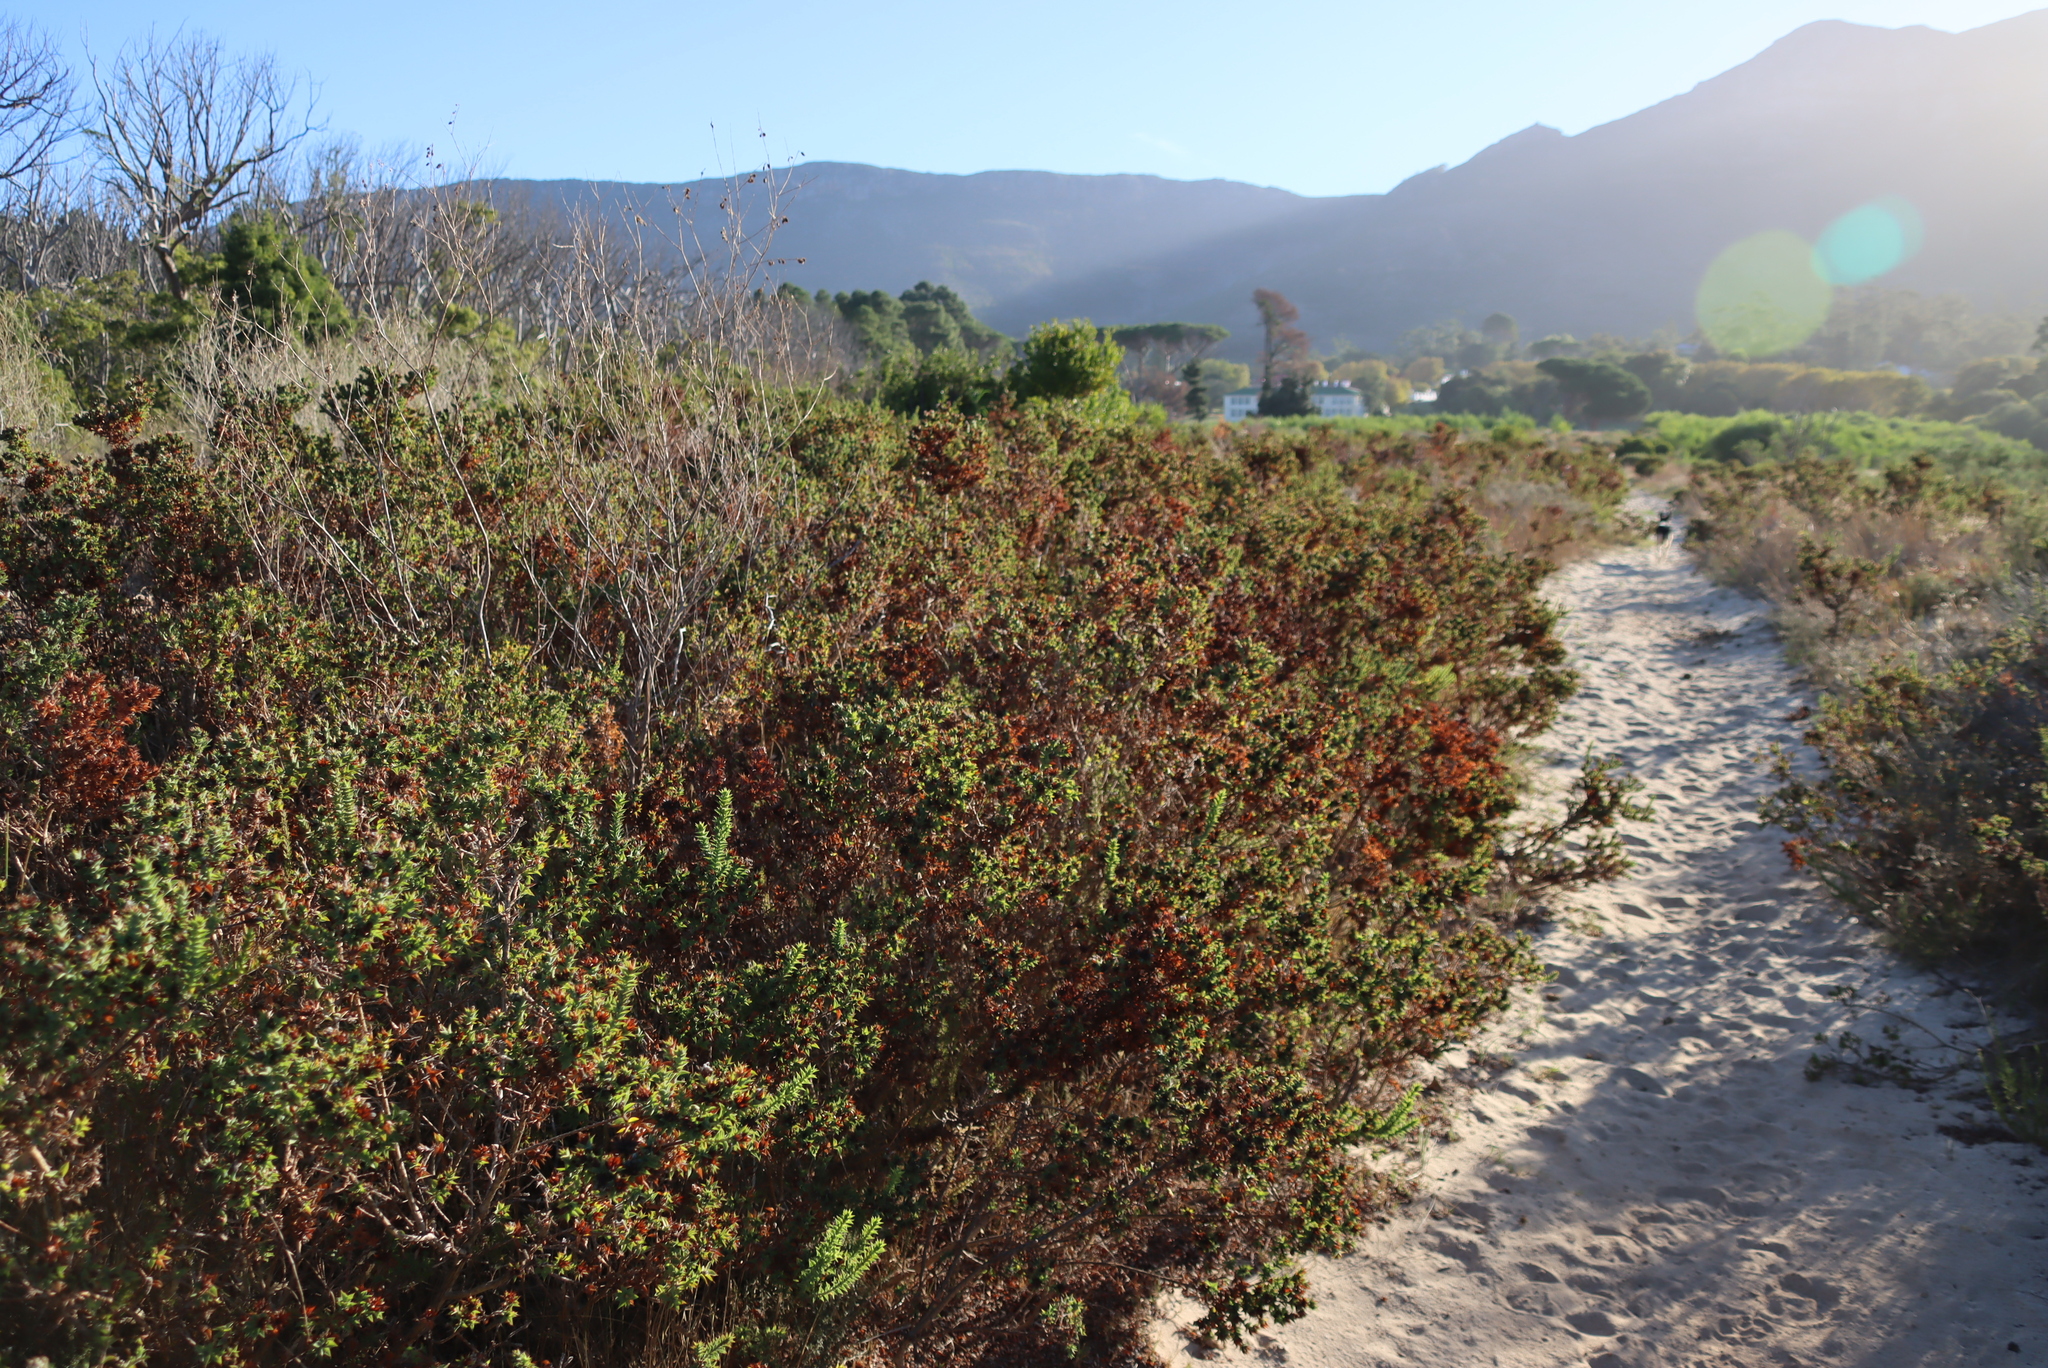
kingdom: Plantae
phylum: Tracheophyta
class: Magnoliopsida
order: Fabales
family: Fabaceae
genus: Aspalathus
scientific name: Aspalathus cordata
